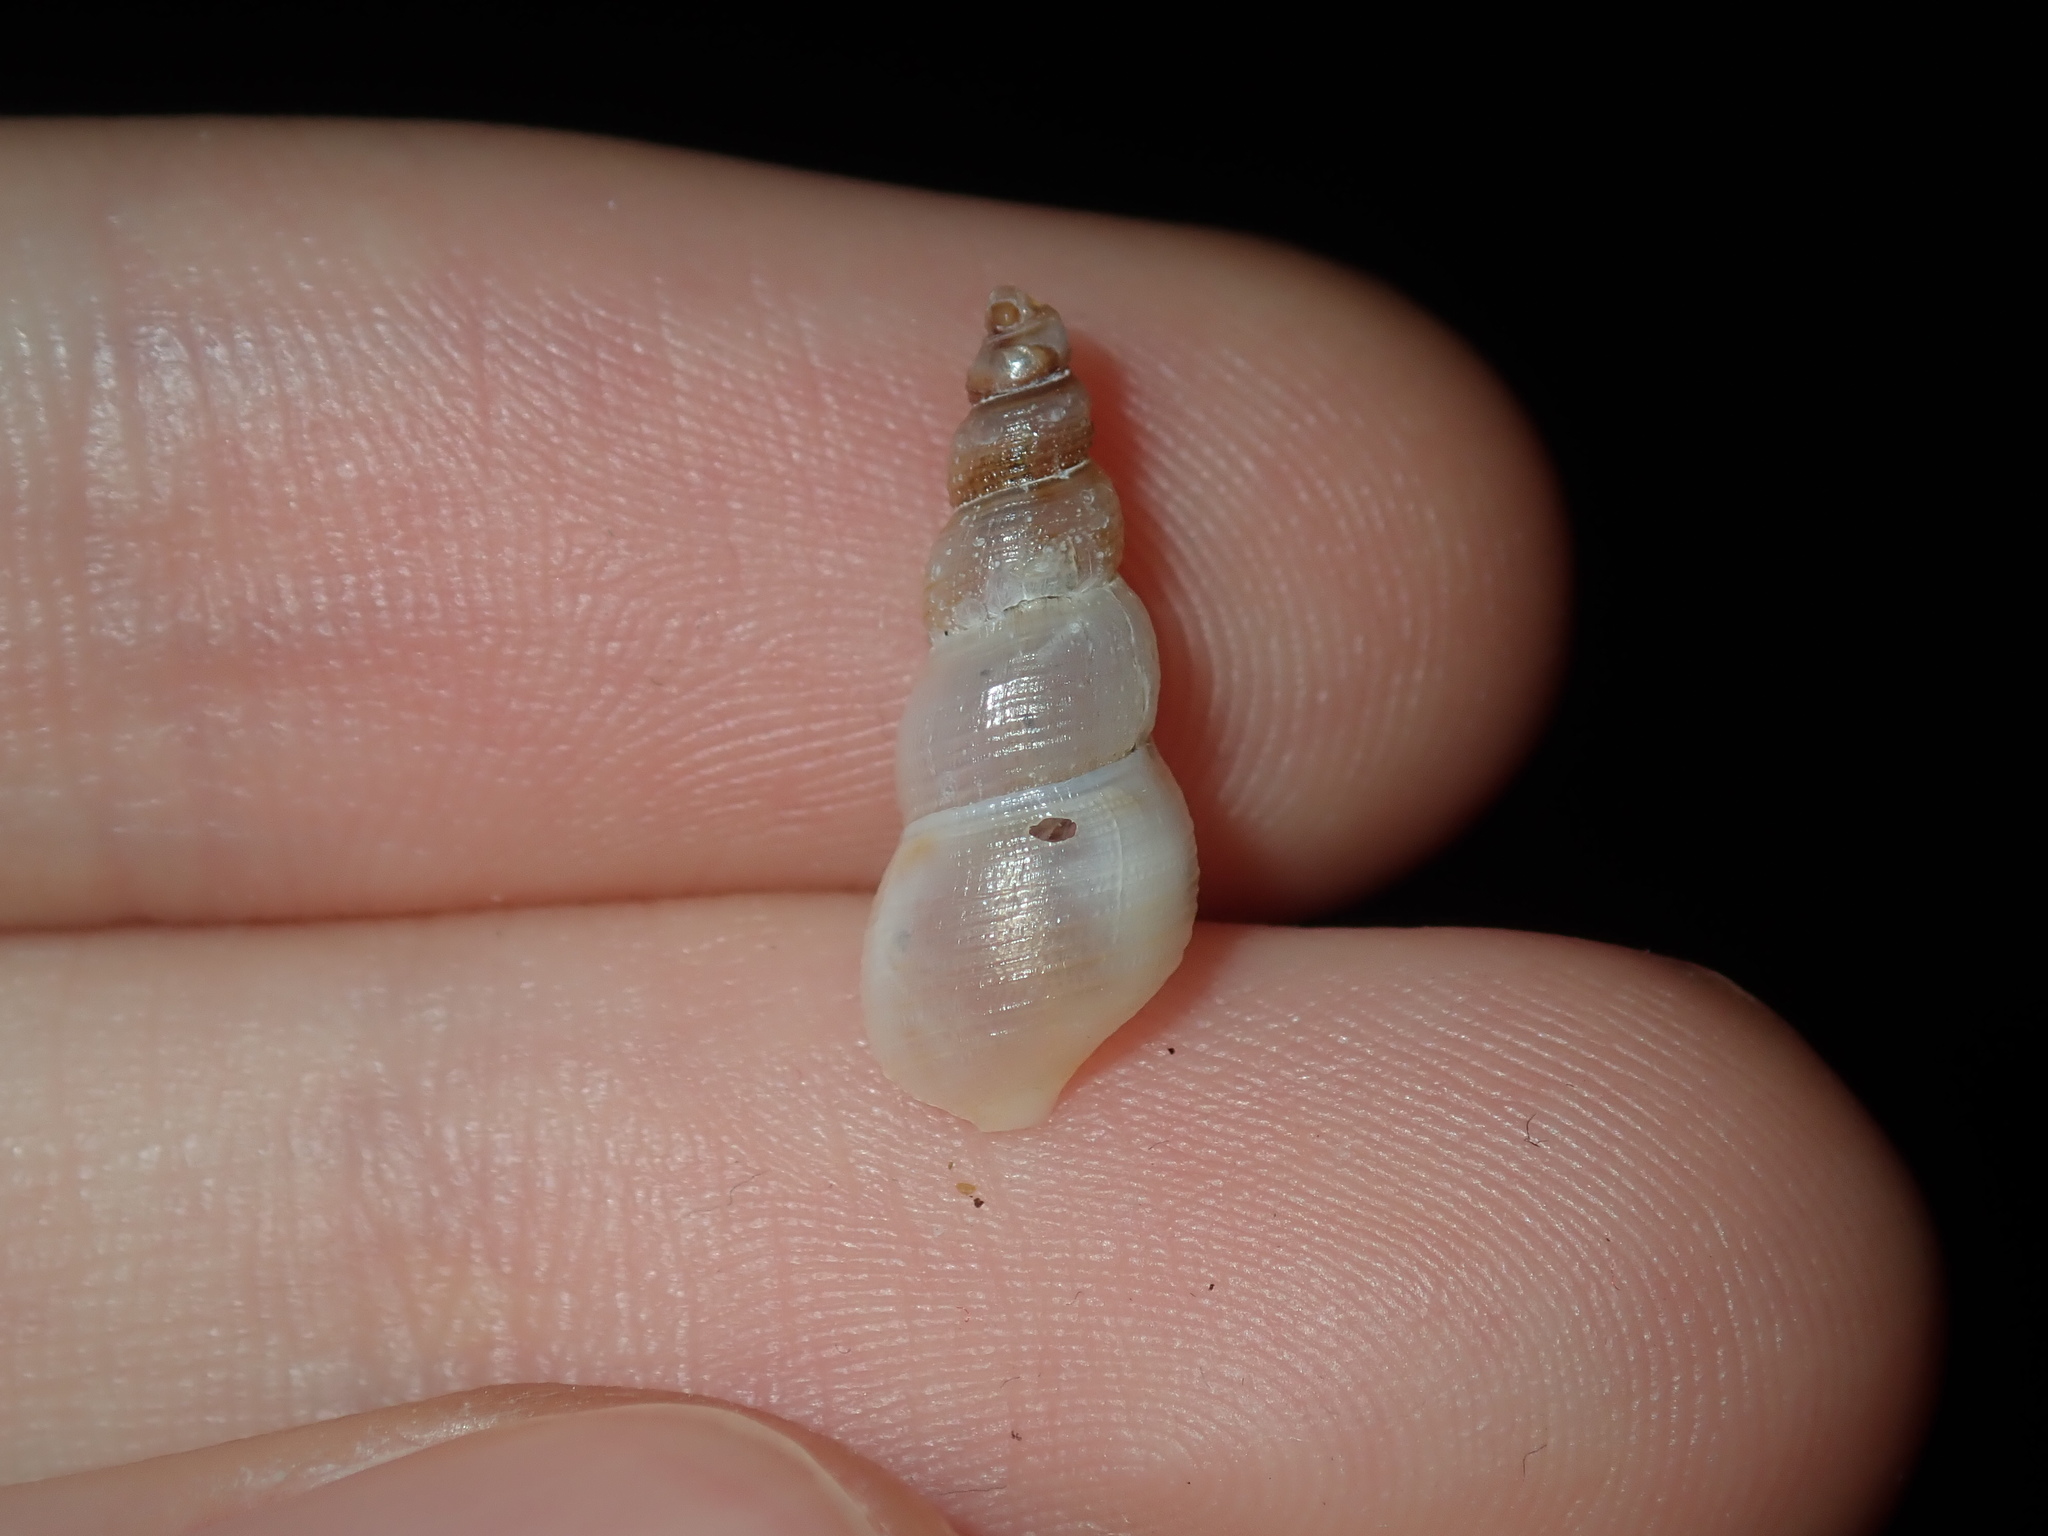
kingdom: Animalia
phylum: Mollusca
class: Gastropoda
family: Thiaridae
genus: Melanoides
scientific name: Melanoides tuberculata
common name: Red-rim melania
